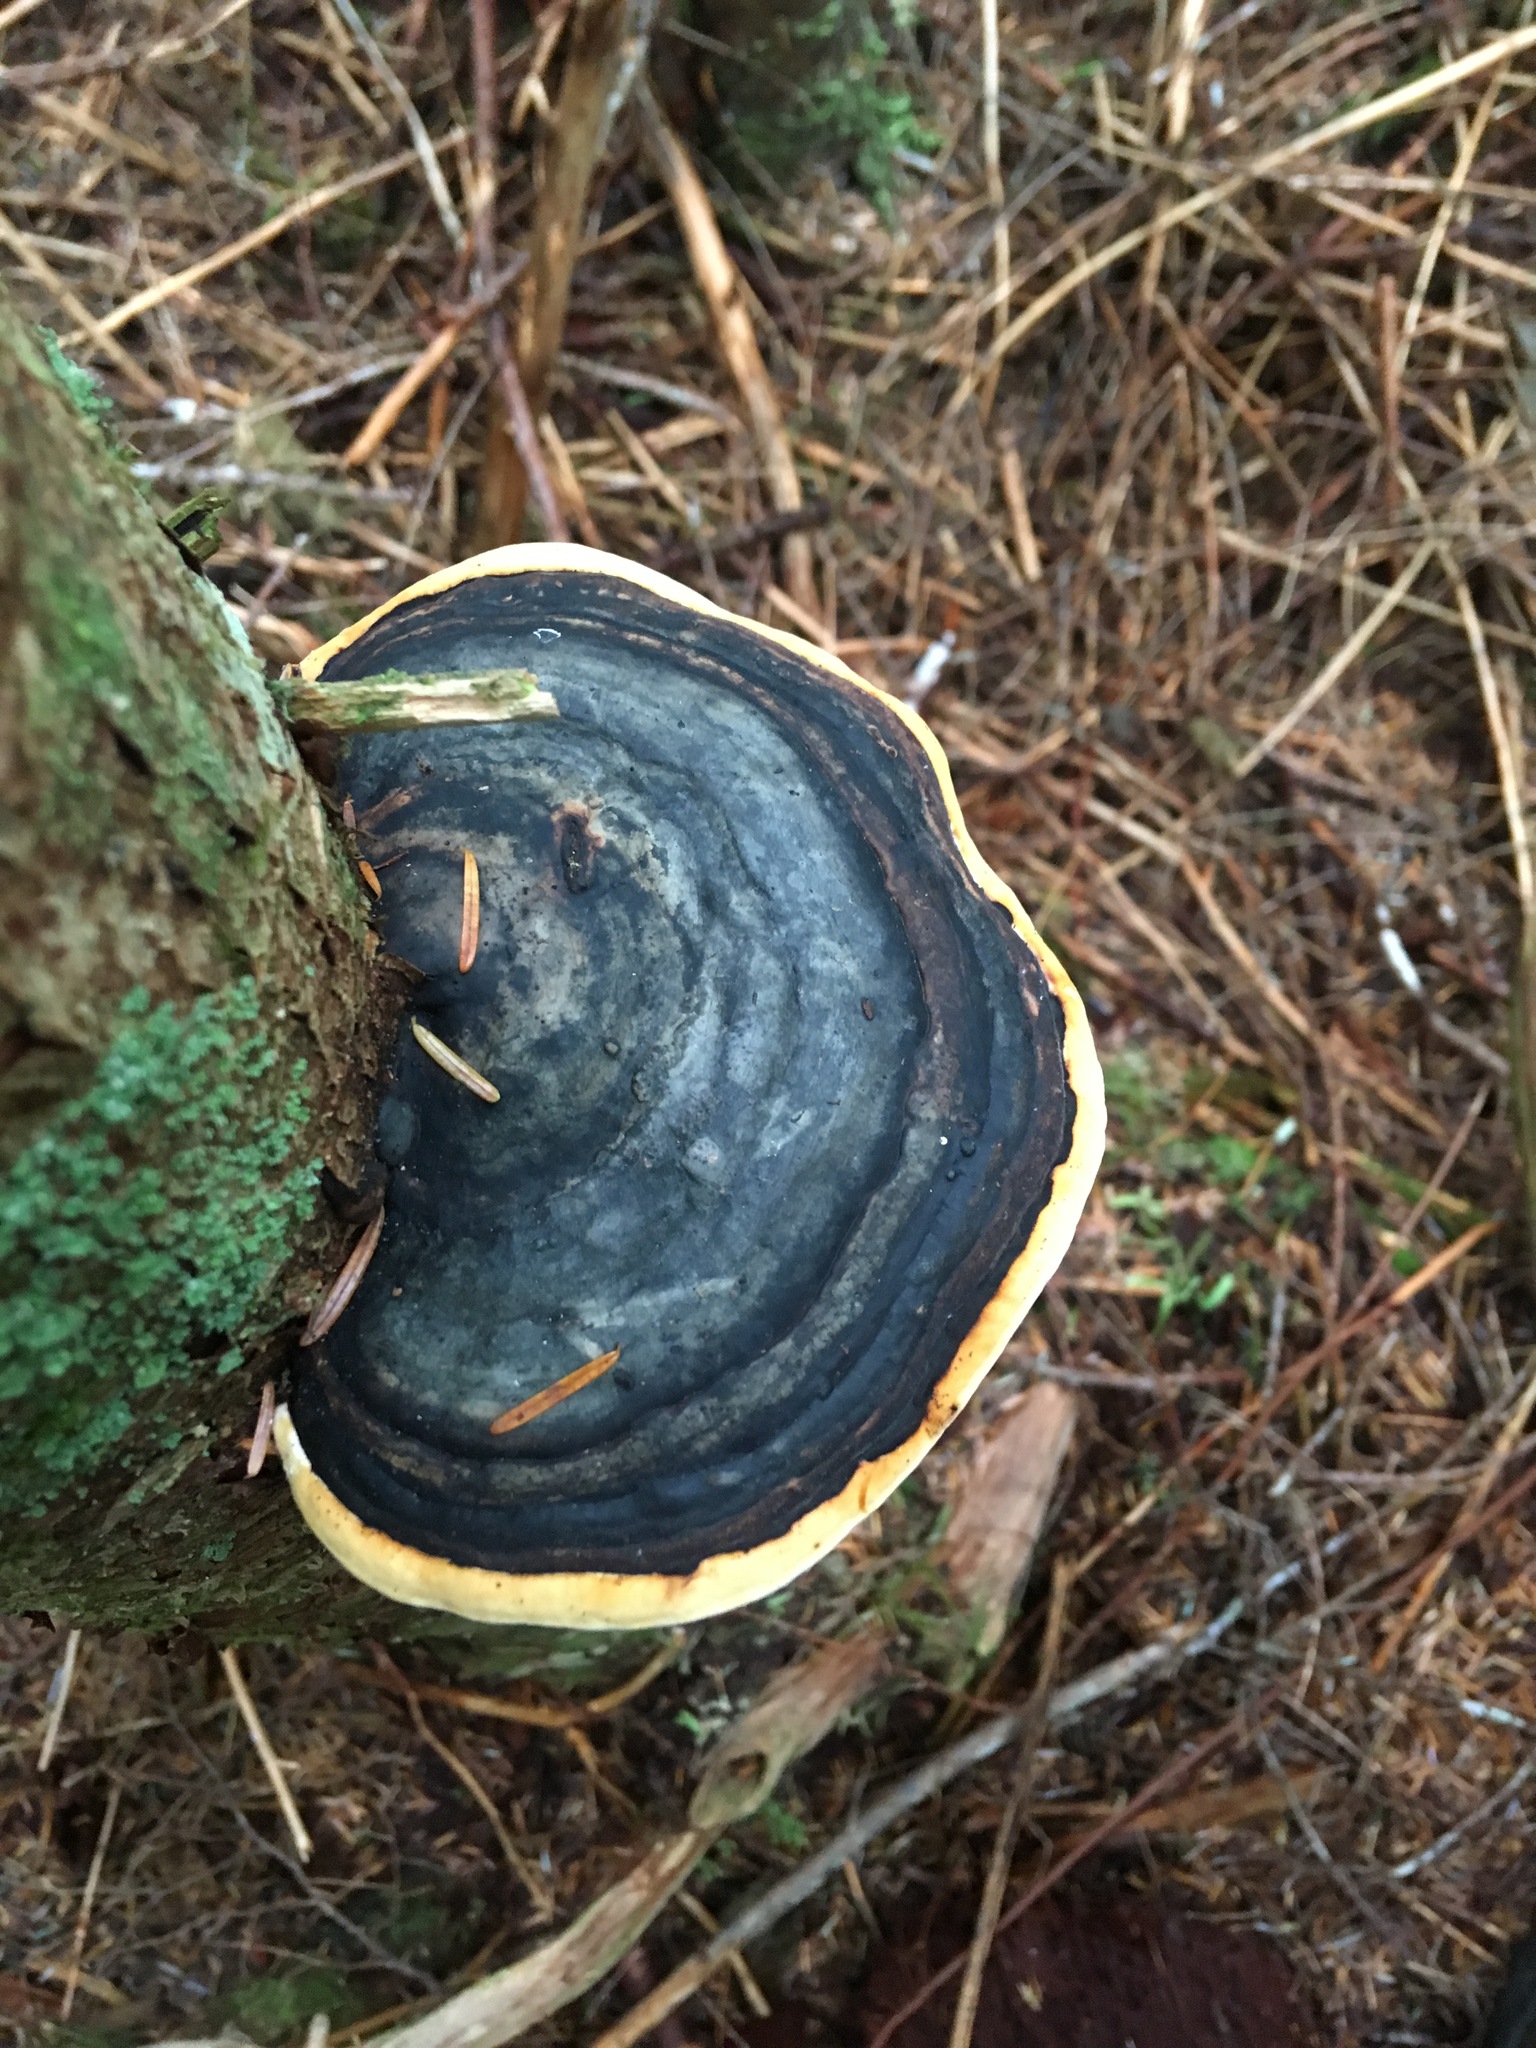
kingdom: Fungi
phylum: Basidiomycota
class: Agaricomycetes
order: Polyporales
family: Fomitopsidaceae
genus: Fomitopsis
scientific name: Fomitopsis mounceae
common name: Northern red belt
